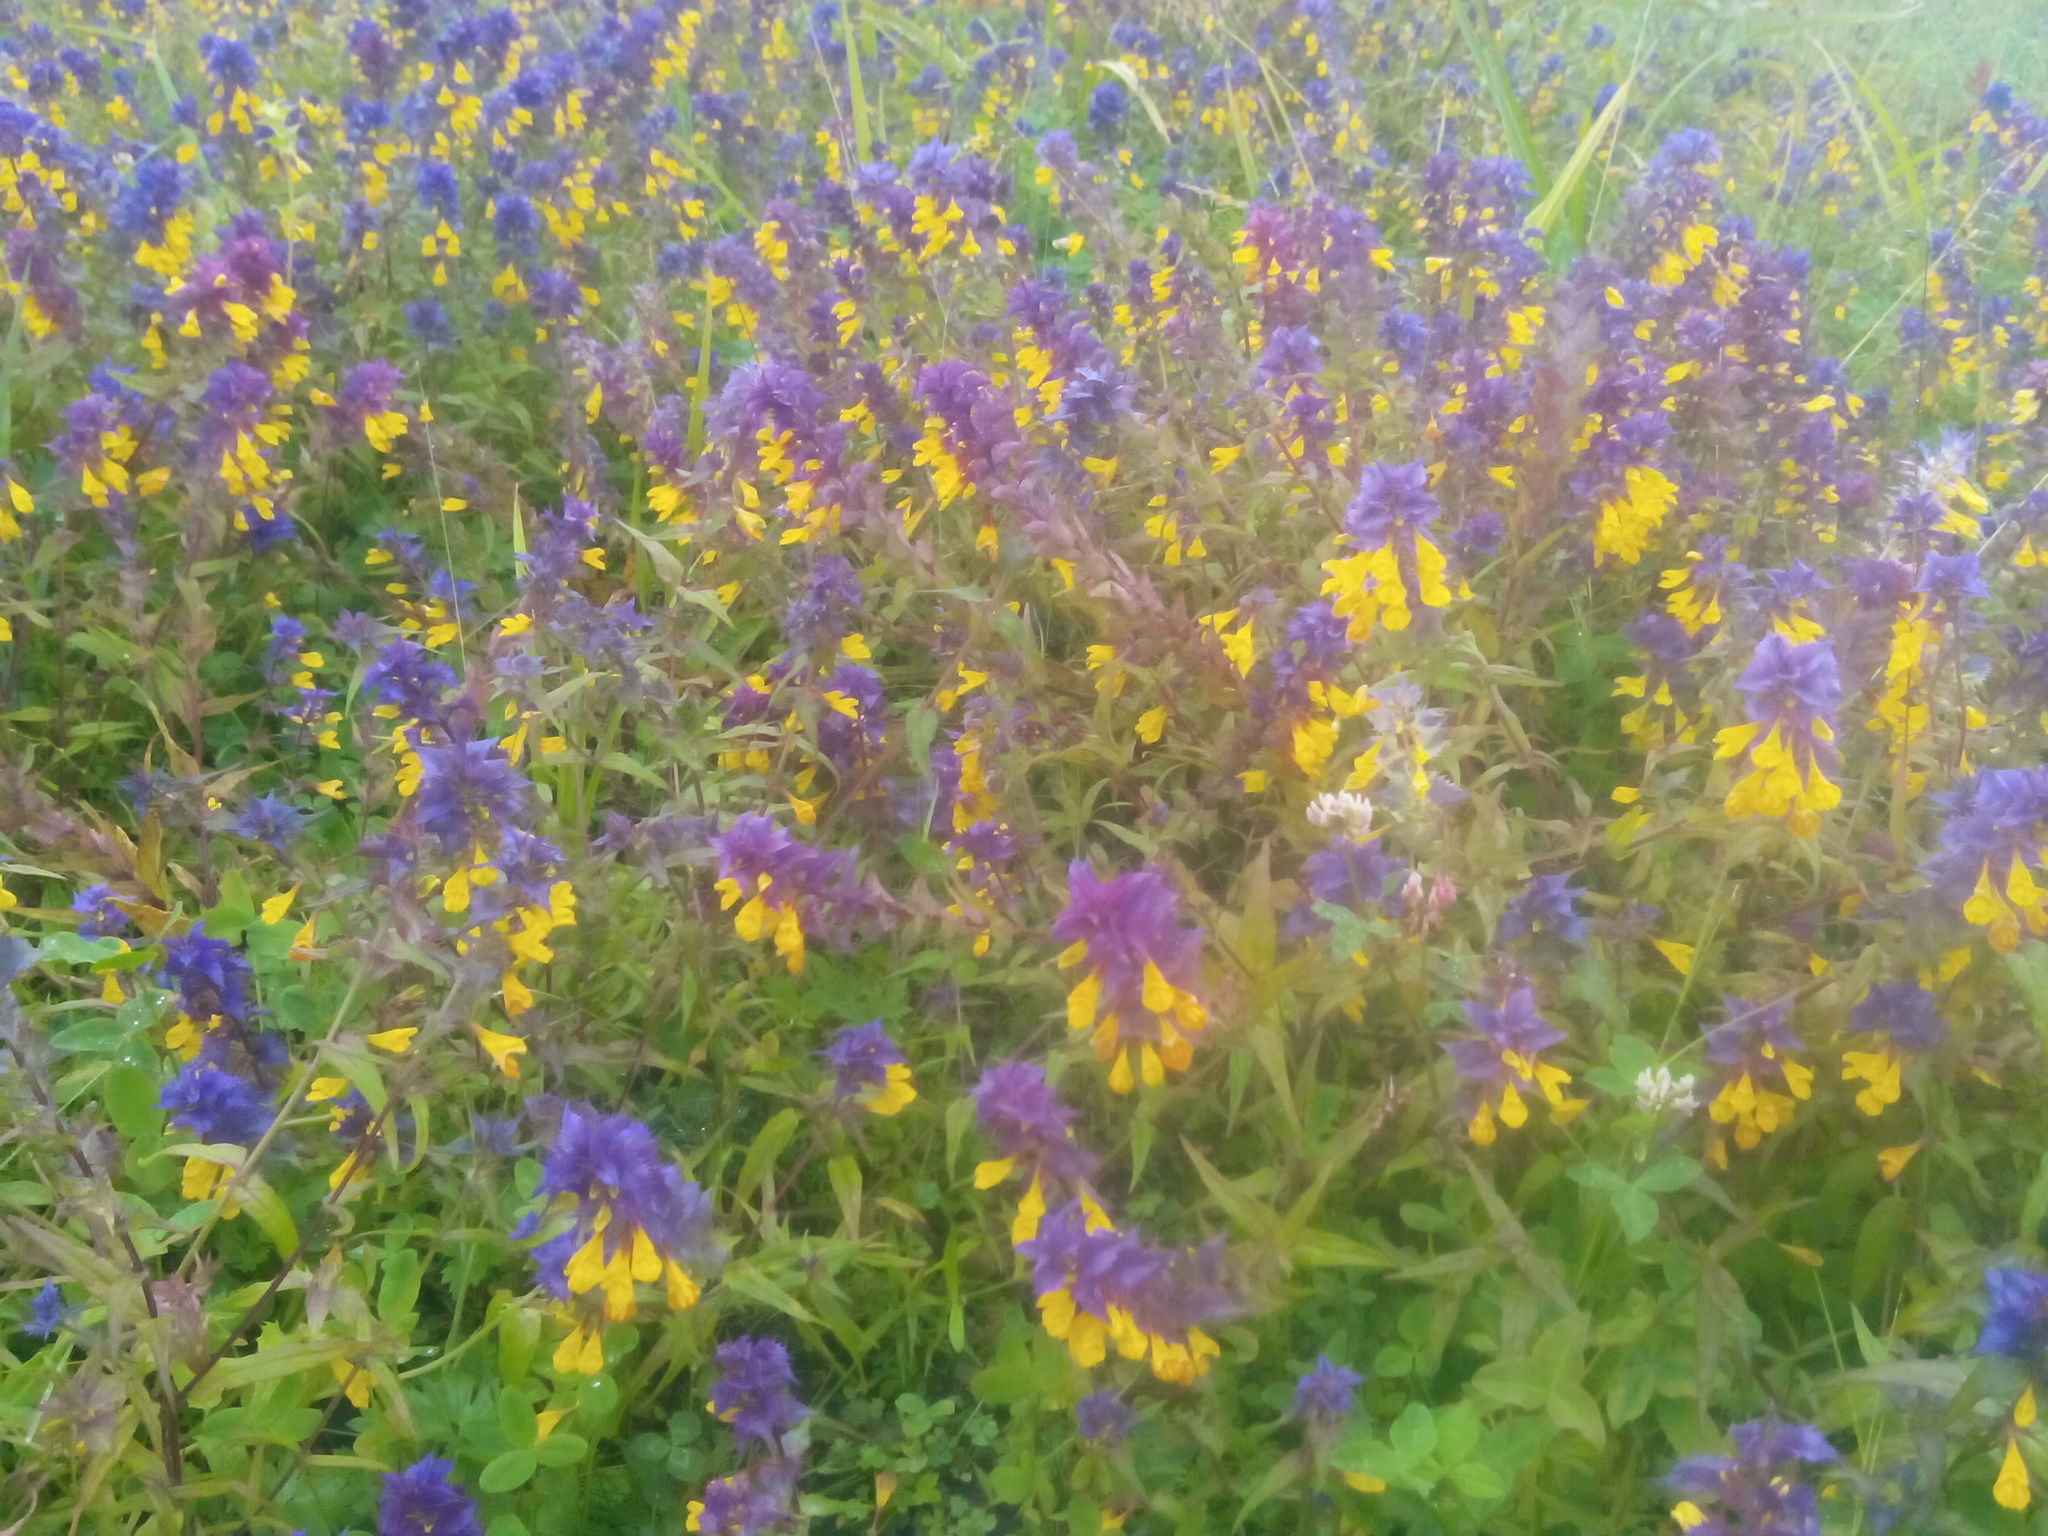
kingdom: Plantae
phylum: Tracheophyta
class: Magnoliopsida
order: Lamiales
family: Orobanchaceae
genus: Melampyrum
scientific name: Melampyrum nemorosum
